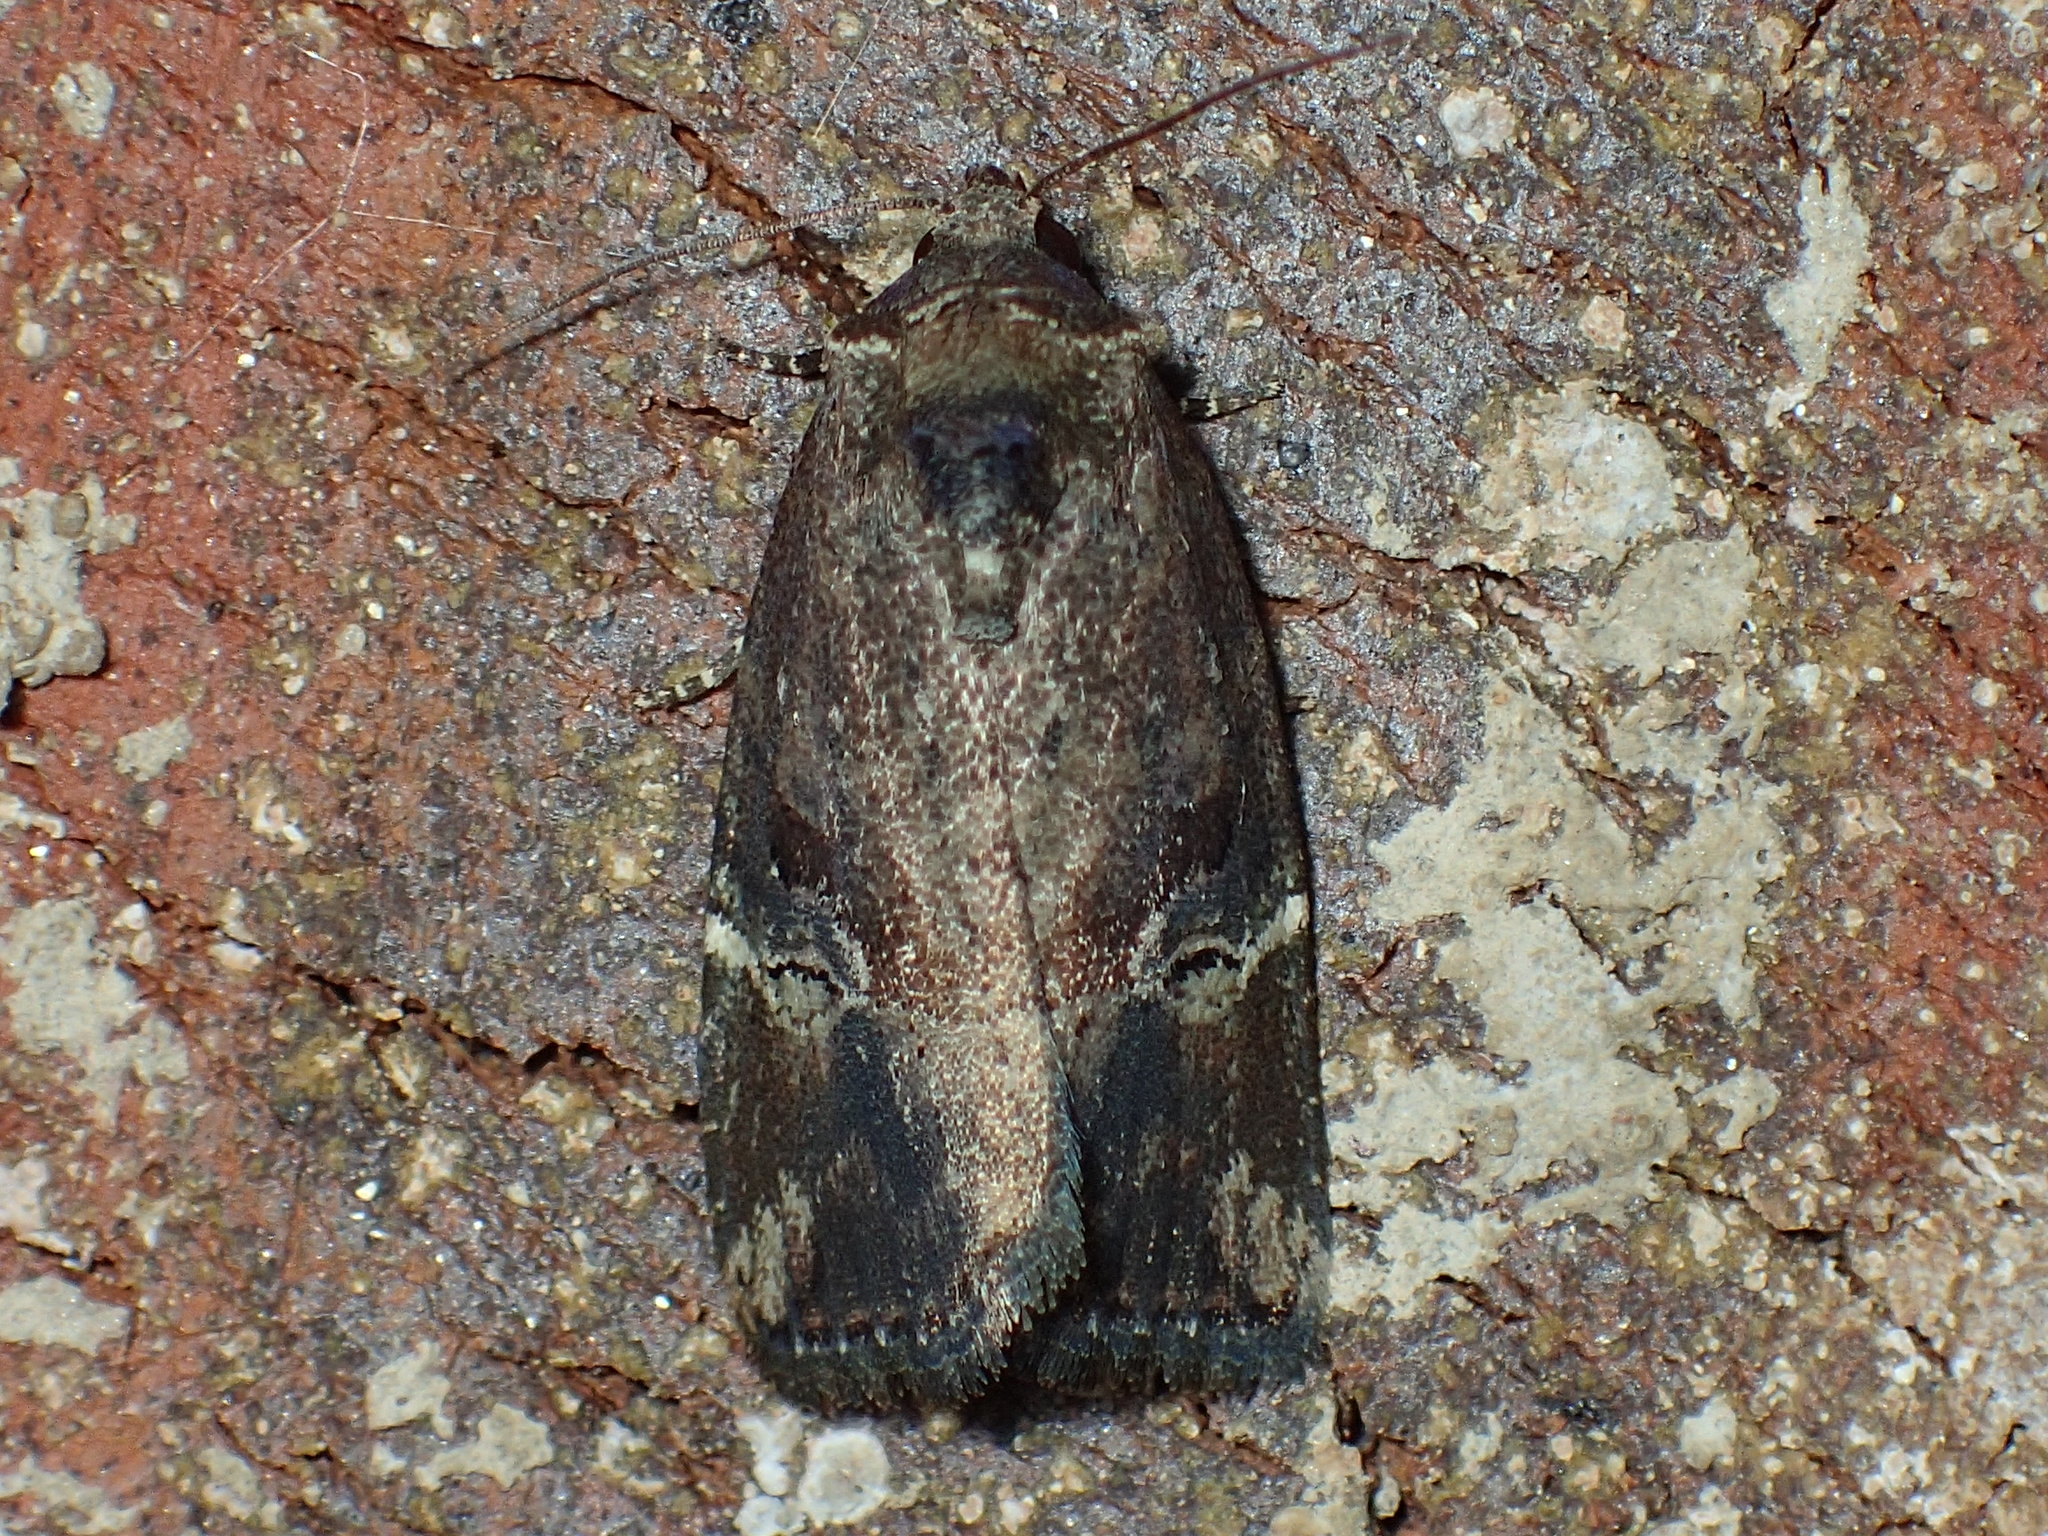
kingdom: Animalia
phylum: Arthropoda
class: Insecta
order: Lepidoptera
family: Noctuidae
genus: Elaphria
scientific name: Elaphria versicolor
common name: Fir harlequin
